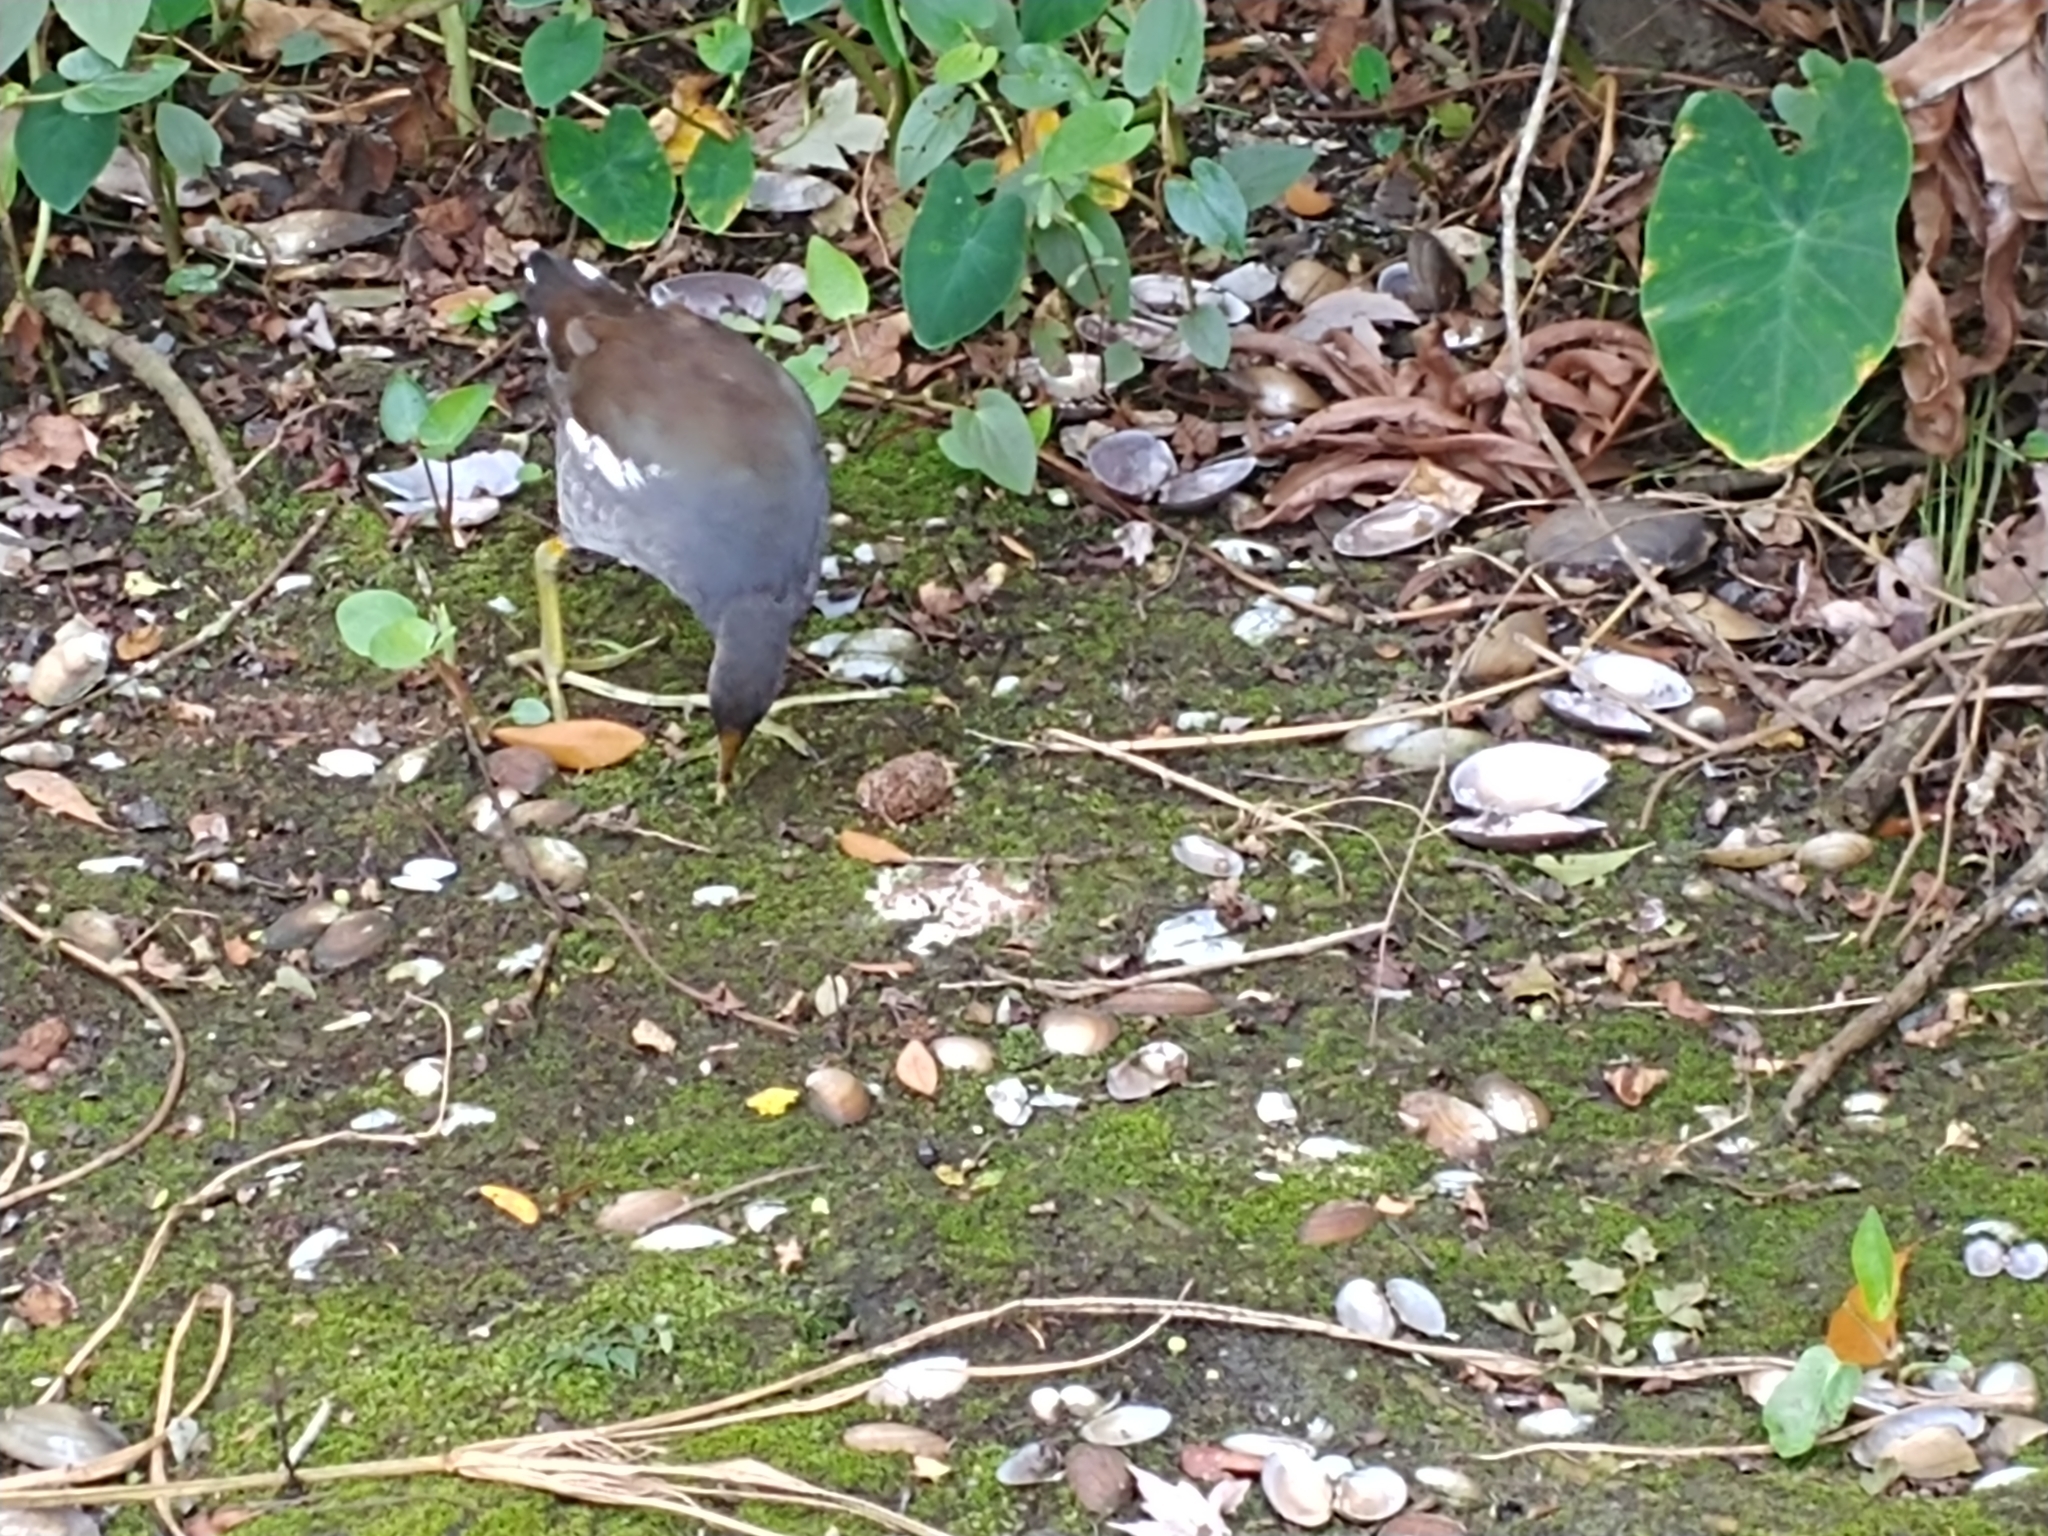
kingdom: Animalia
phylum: Chordata
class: Aves
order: Gruiformes
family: Rallidae
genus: Gallinula
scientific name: Gallinula chloropus
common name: Common moorhen
